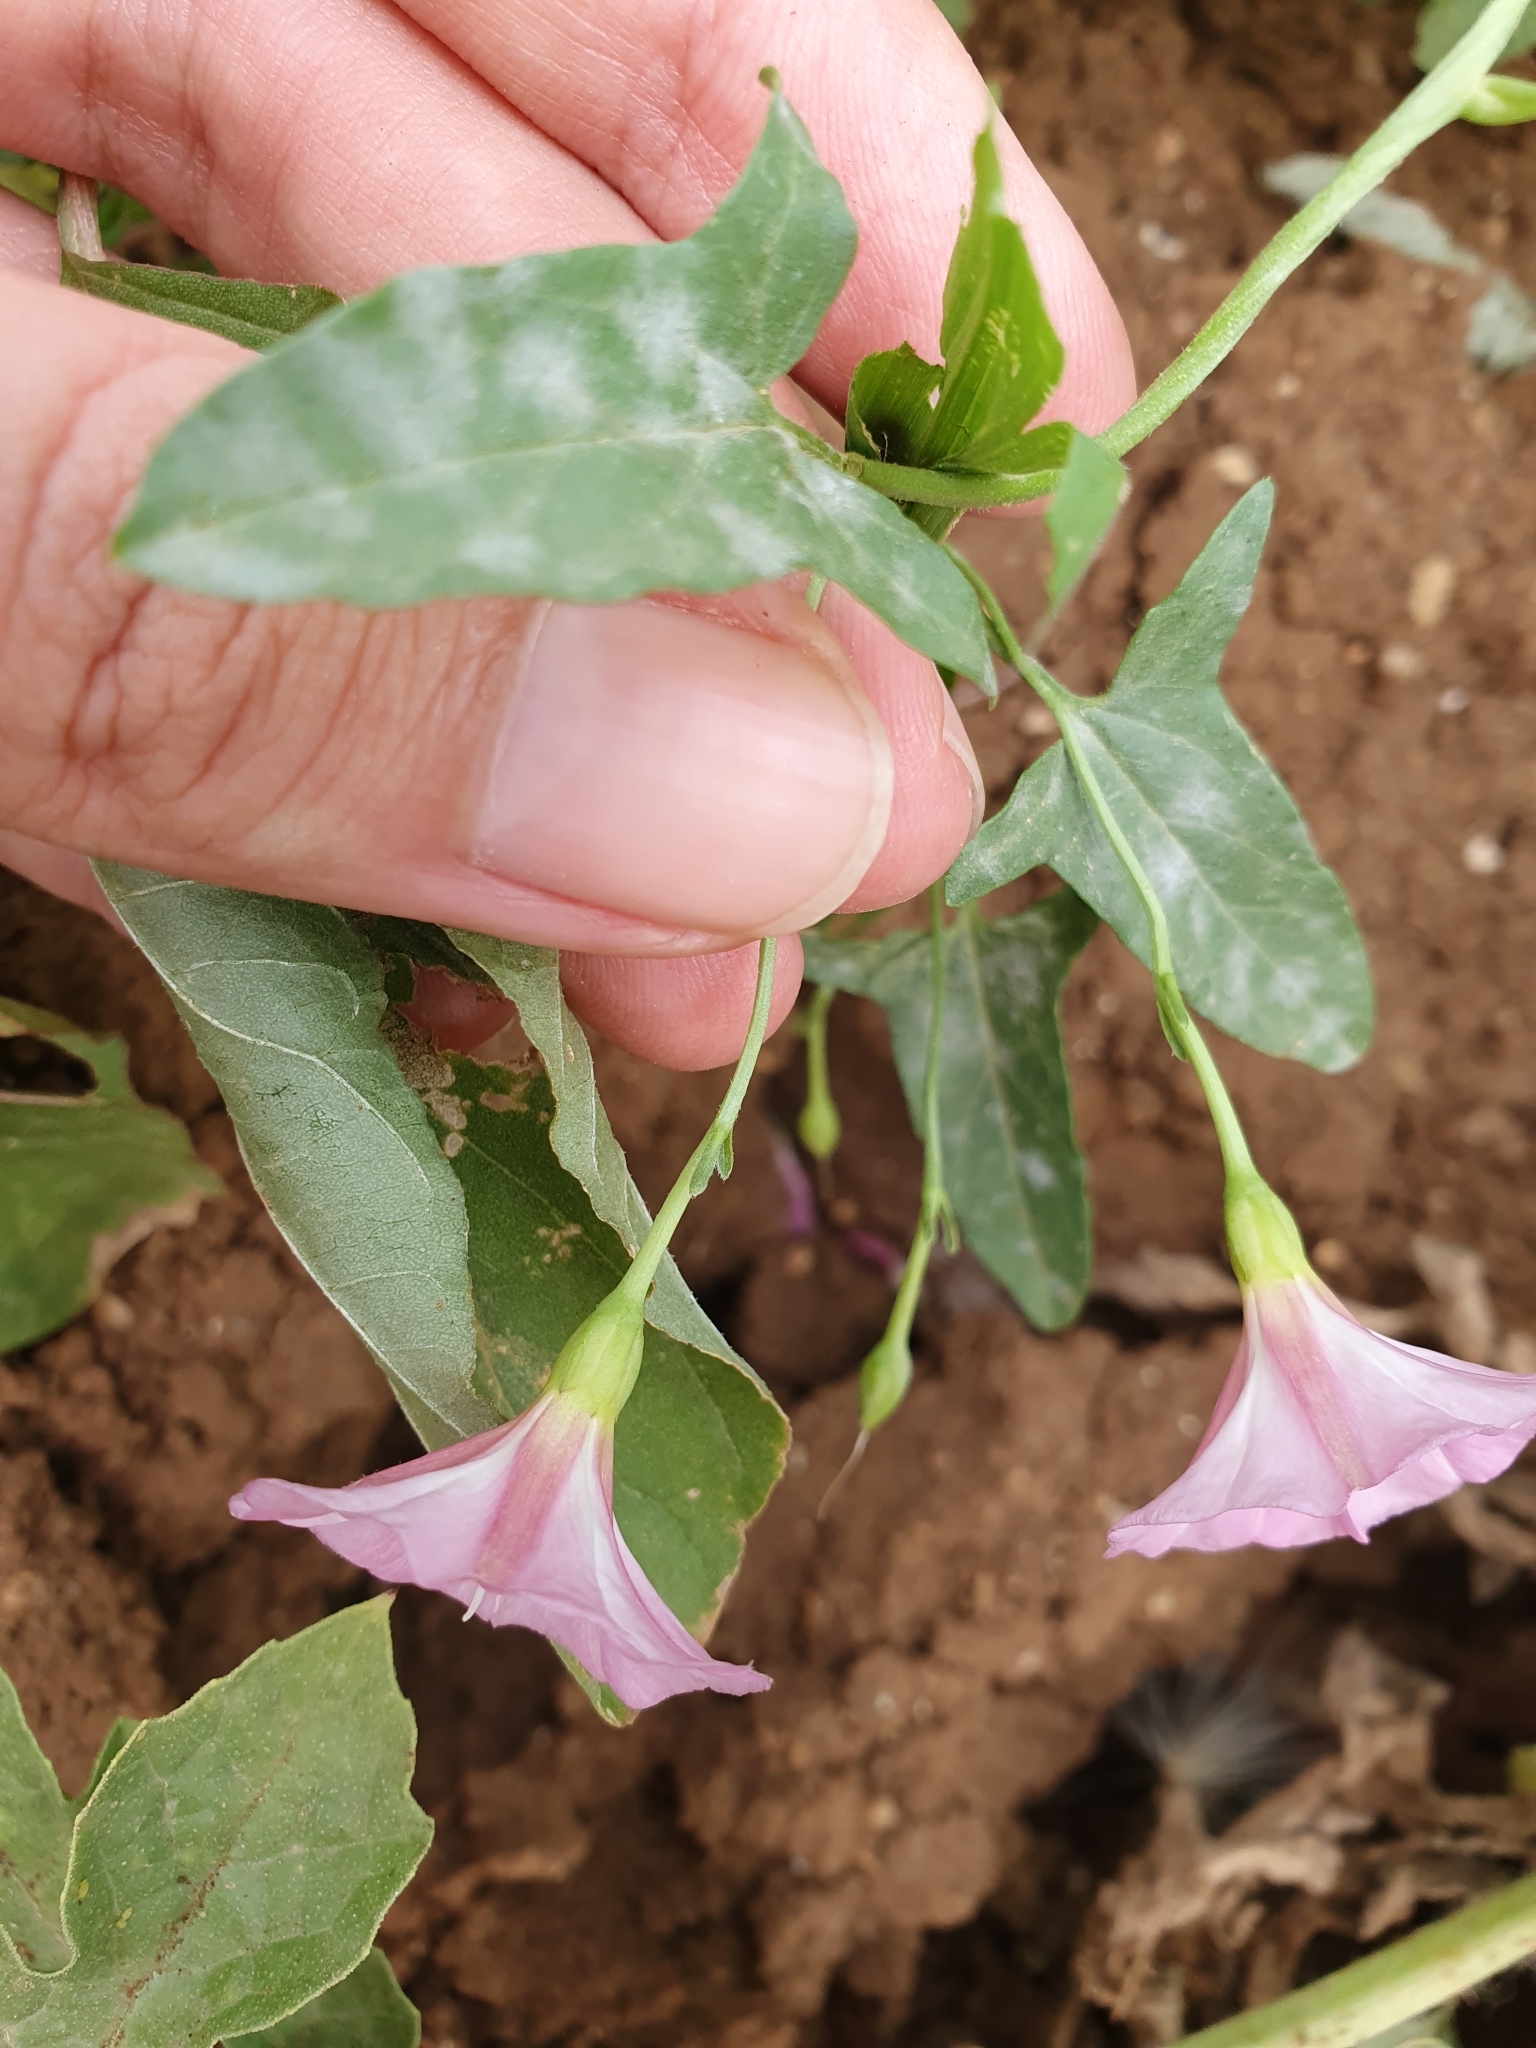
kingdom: Plantae
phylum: Tracheophyta
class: Magnoliopsida
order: Solanales
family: Convolvulaceae
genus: Convolvulus
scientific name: Convolvulus arvensis
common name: Field bindweed
